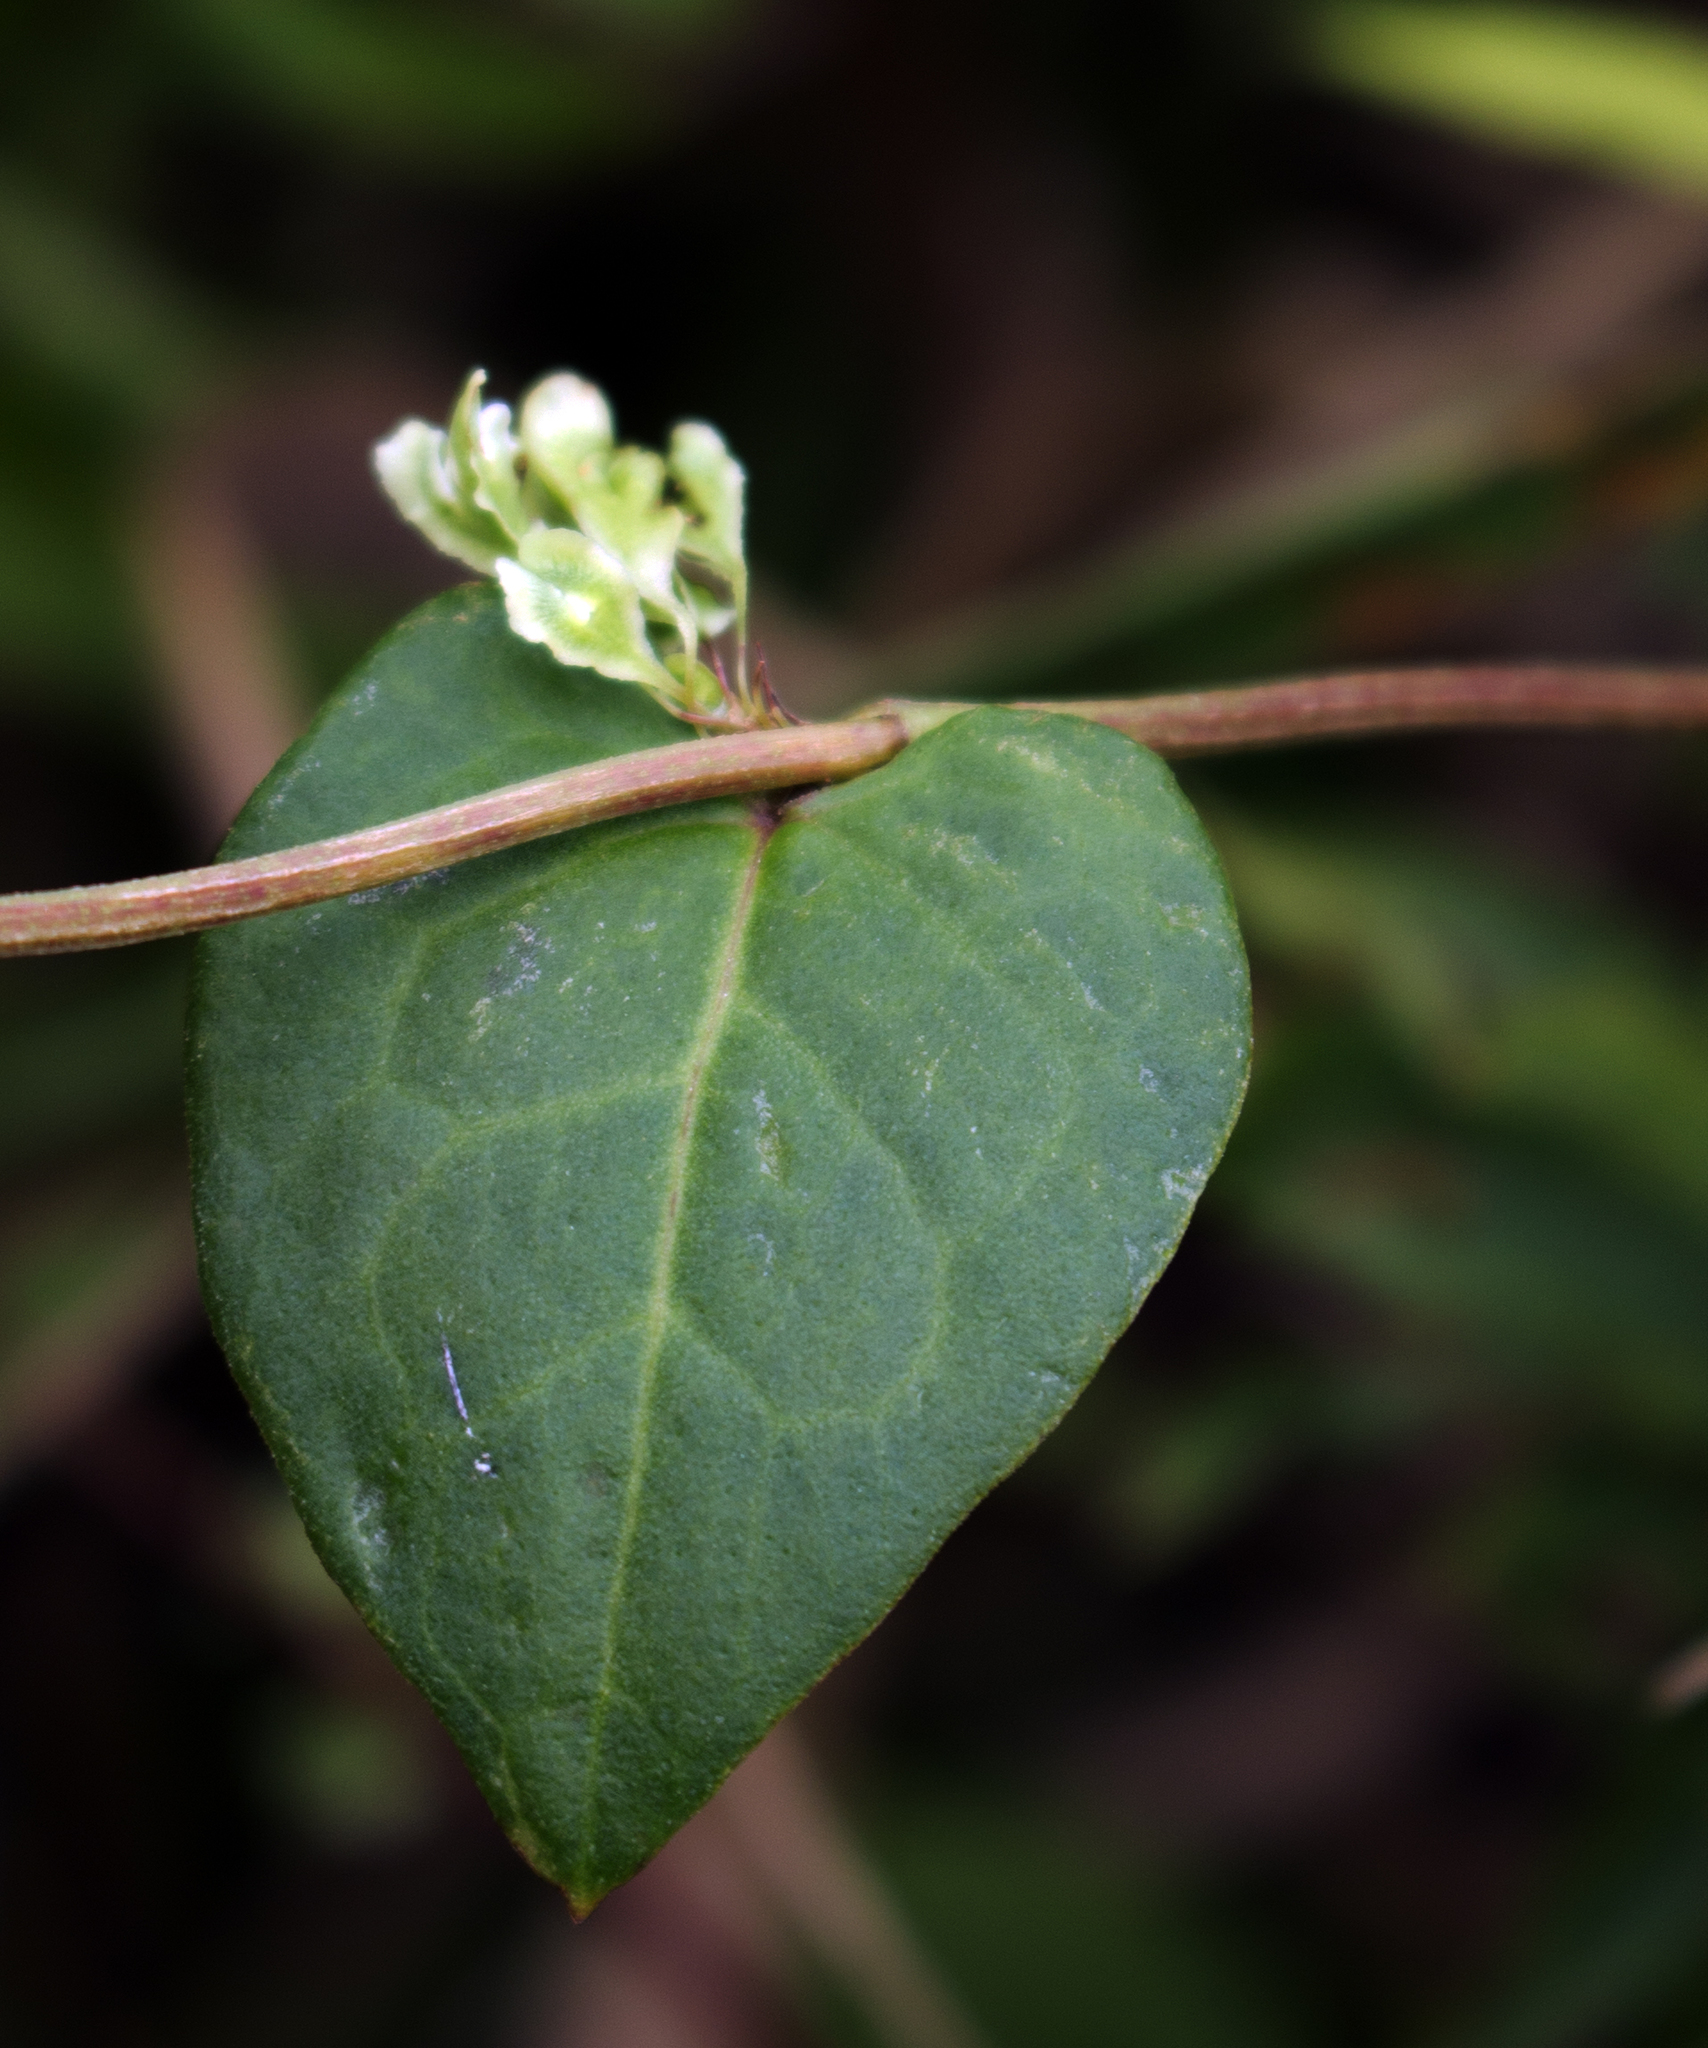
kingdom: Plantae
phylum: Tracheophyta
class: Magnoliopsida
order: Caryophyllales
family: Polygonaceae
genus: Fallopia
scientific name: Fallopia scandens
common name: Climbing false buckwheat
